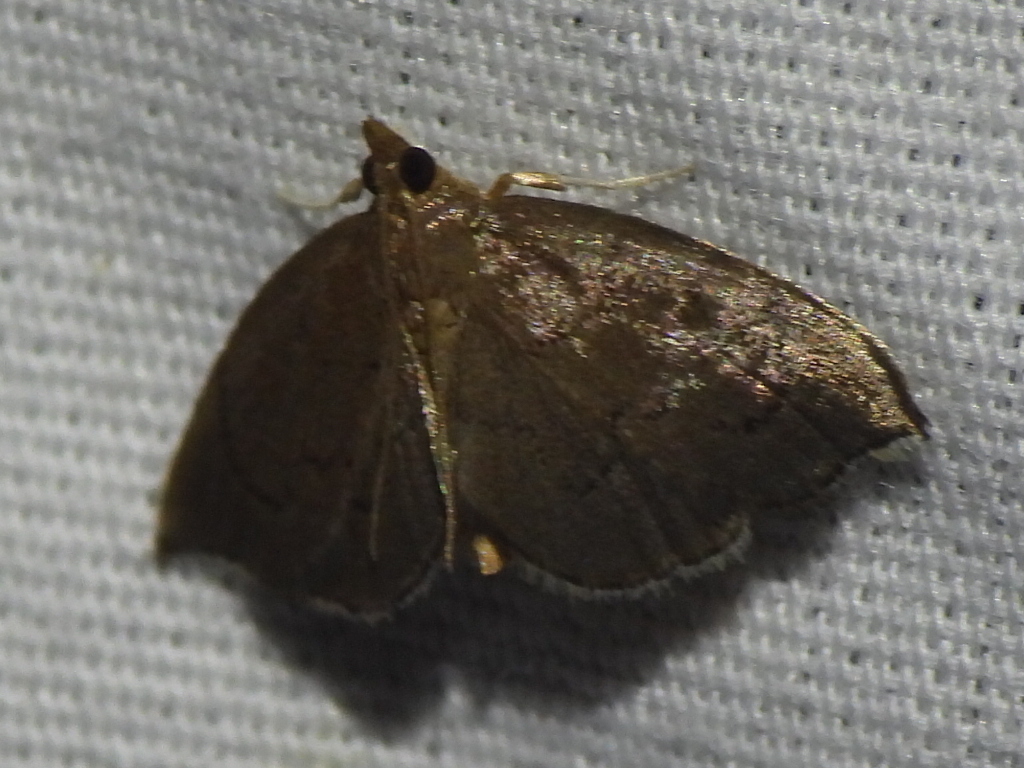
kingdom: Animalia
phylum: Arthropoda
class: Insecta
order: Lepidoptera
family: Crambidae
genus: Perispasta
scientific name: Perispasta caeculalis
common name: Titian peale's moth
